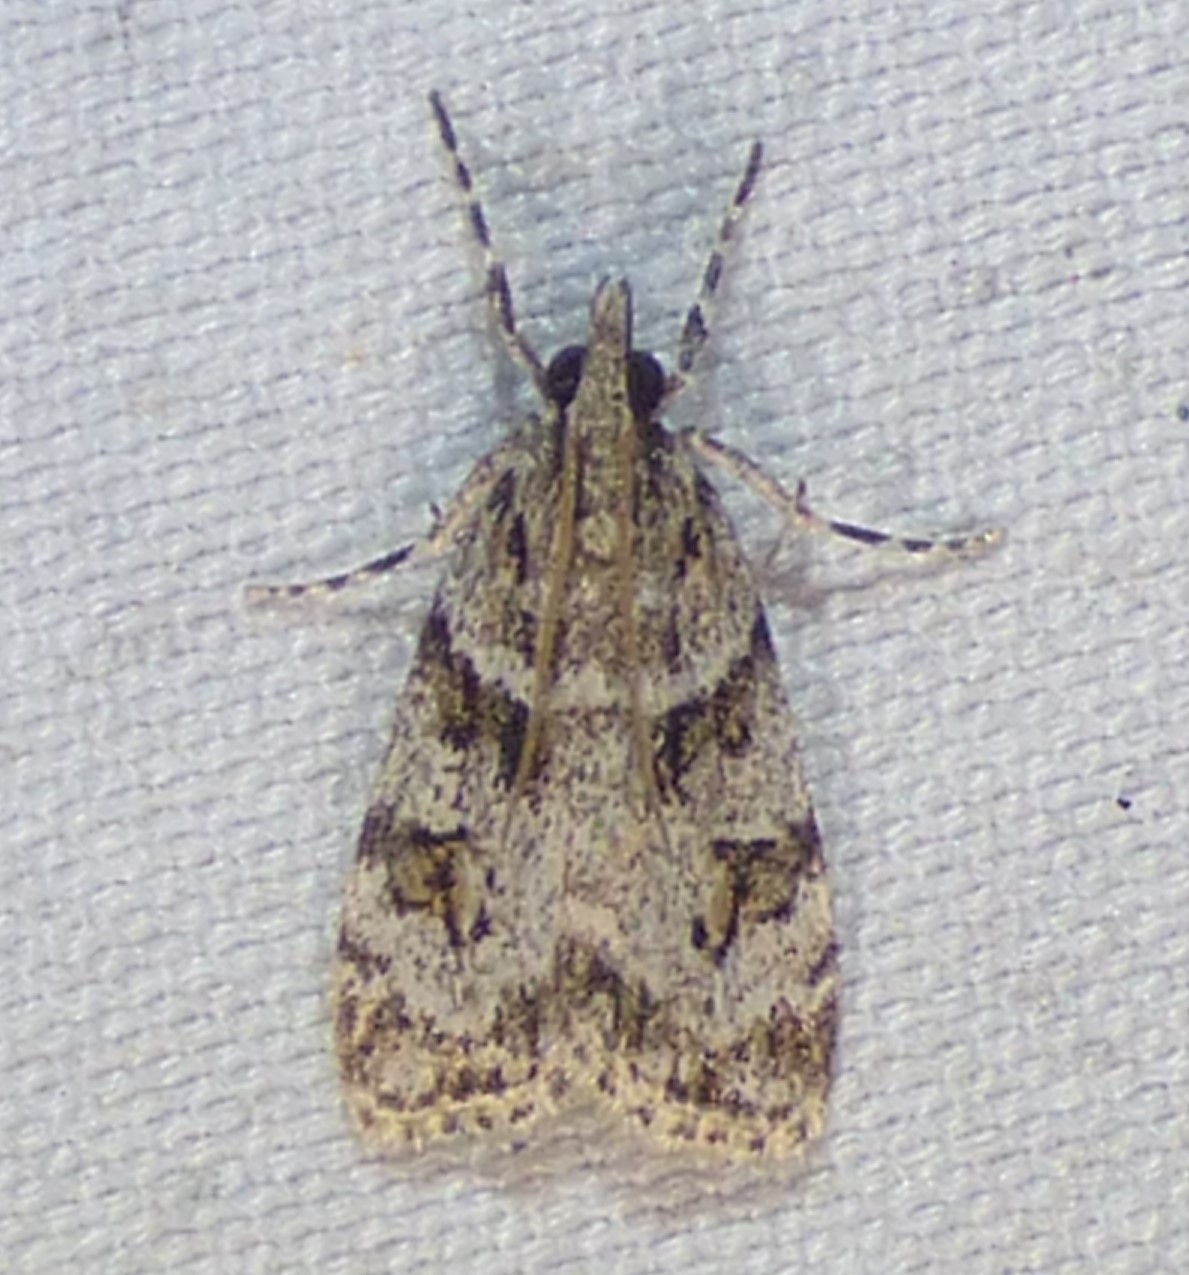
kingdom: Animalia
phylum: Arthropoda
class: Insecta
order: Lepidoptera
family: Crambidae
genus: Scoparia
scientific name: Scoparia biplagialis
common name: Double-striped scoparia moth
